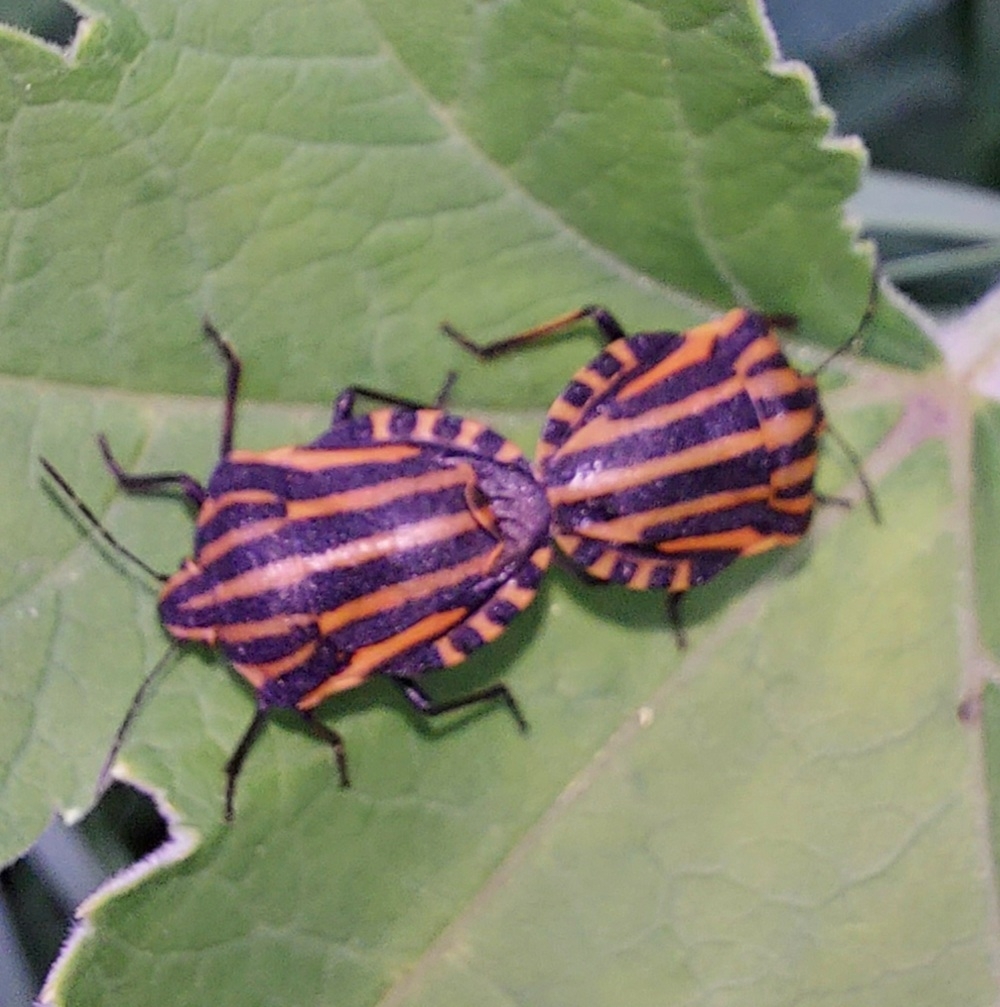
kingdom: Animalia
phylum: Arthropoda
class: Insecta
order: Hemiptera
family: Pentatomidae
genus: Graphosoma
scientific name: Graphosoma italicum
